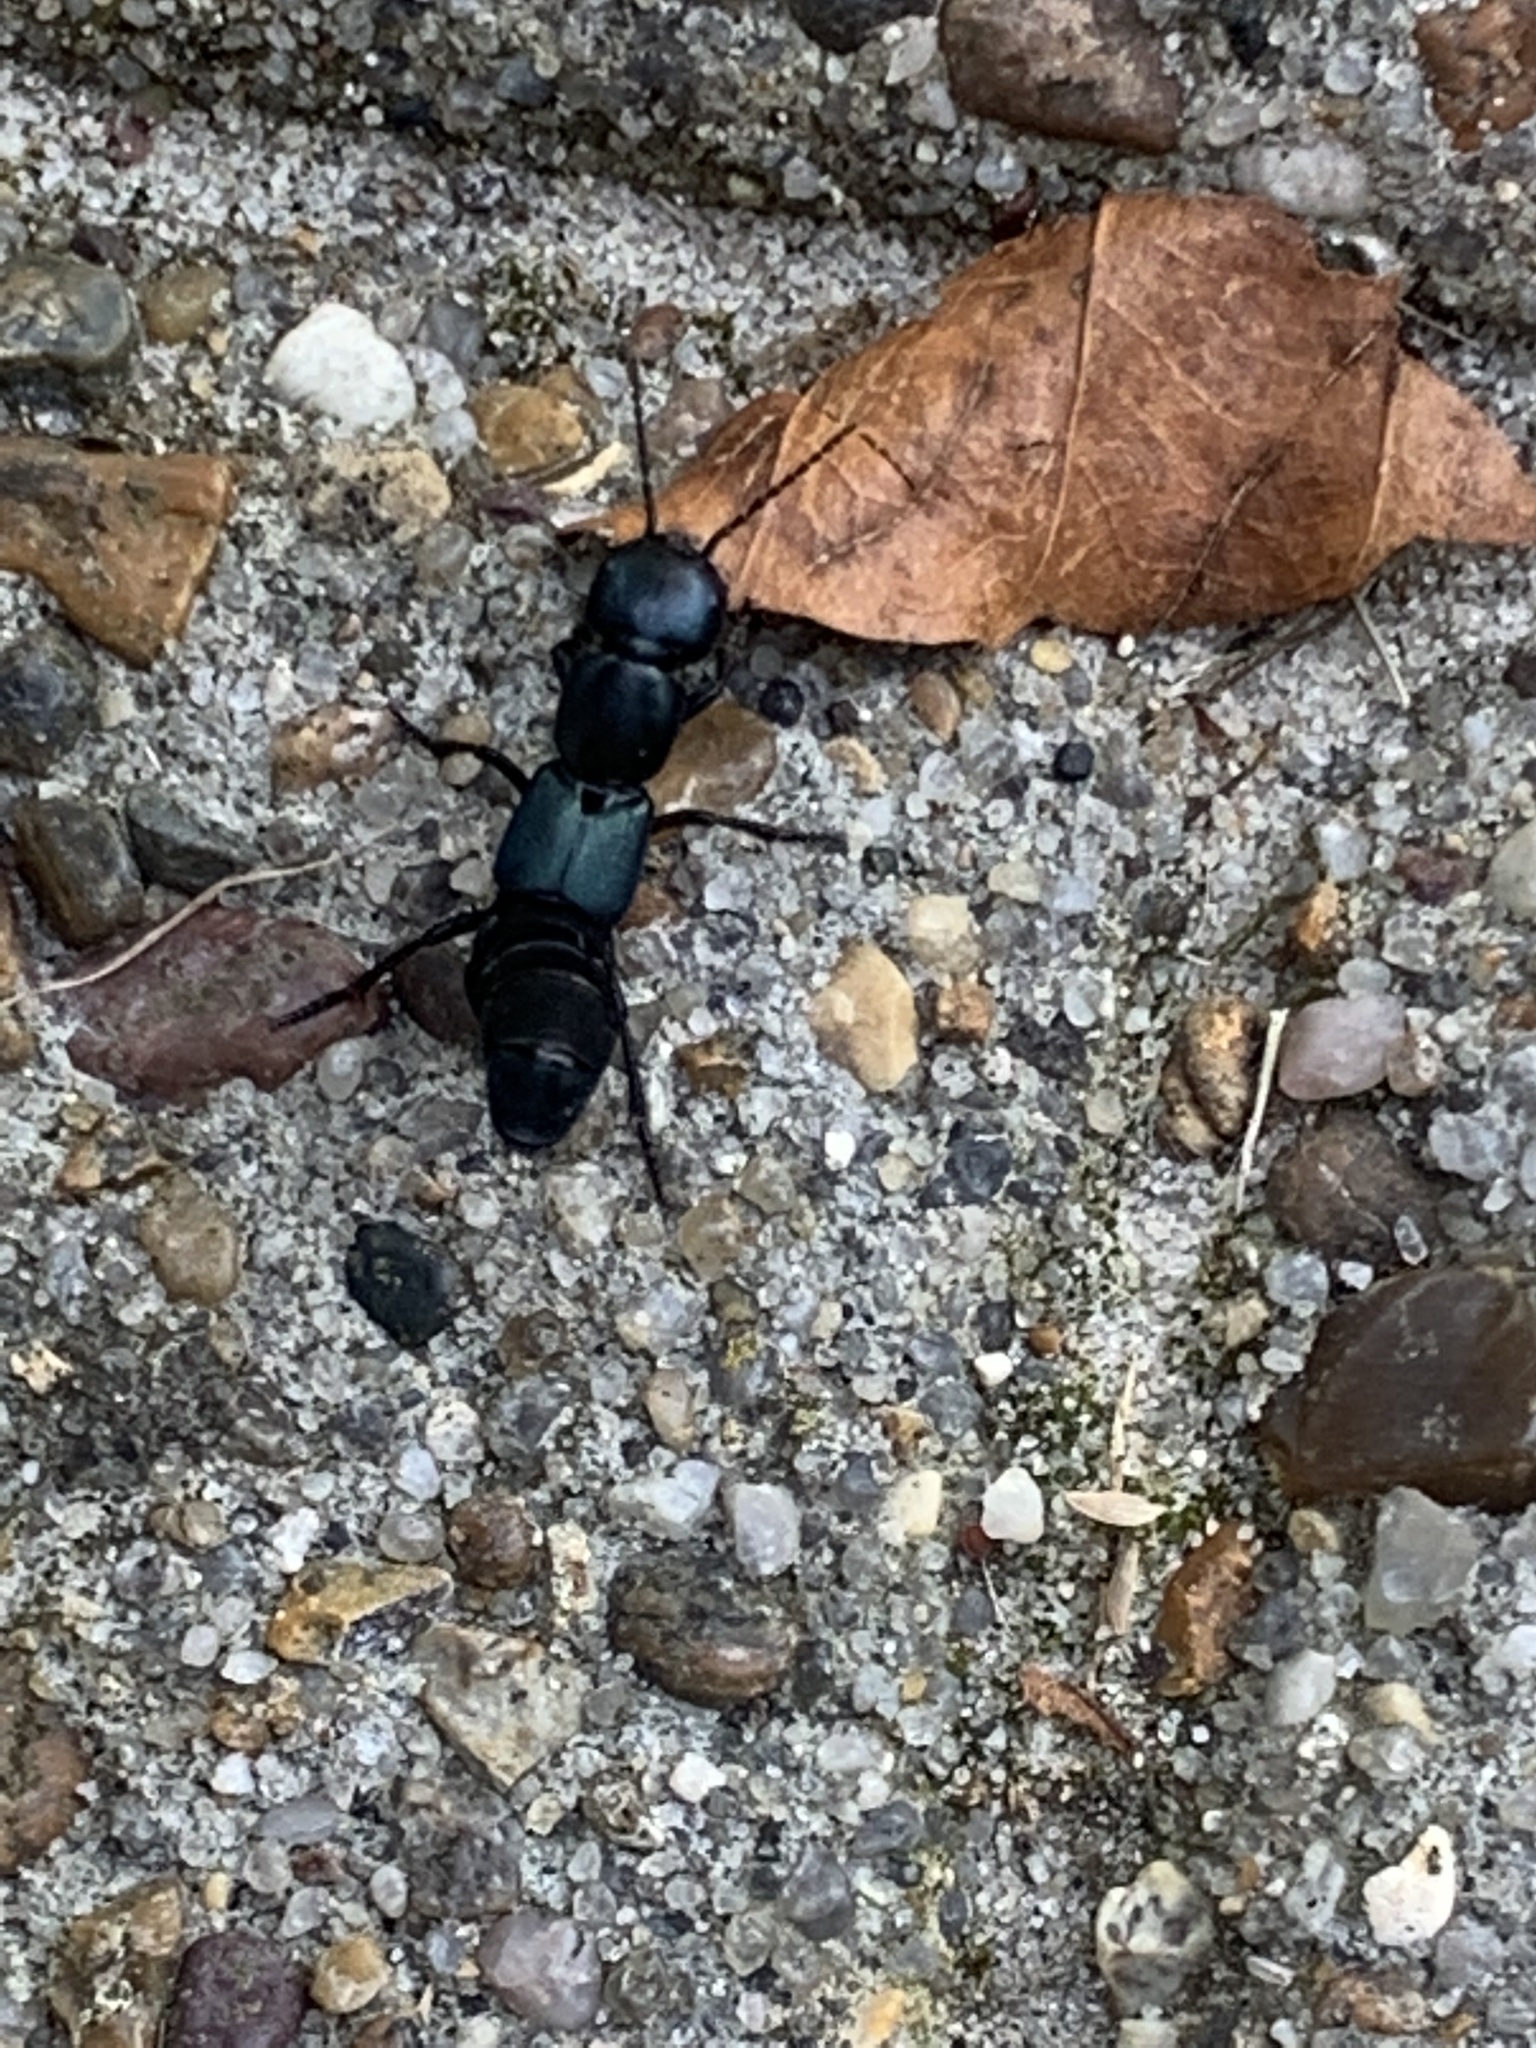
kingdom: Animalia
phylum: Arthropoda
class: Insecta
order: Coleoptera
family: Staphylinidae
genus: Ocypus
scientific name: Ocypus ophthalmicus
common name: Blue rove-beetle
